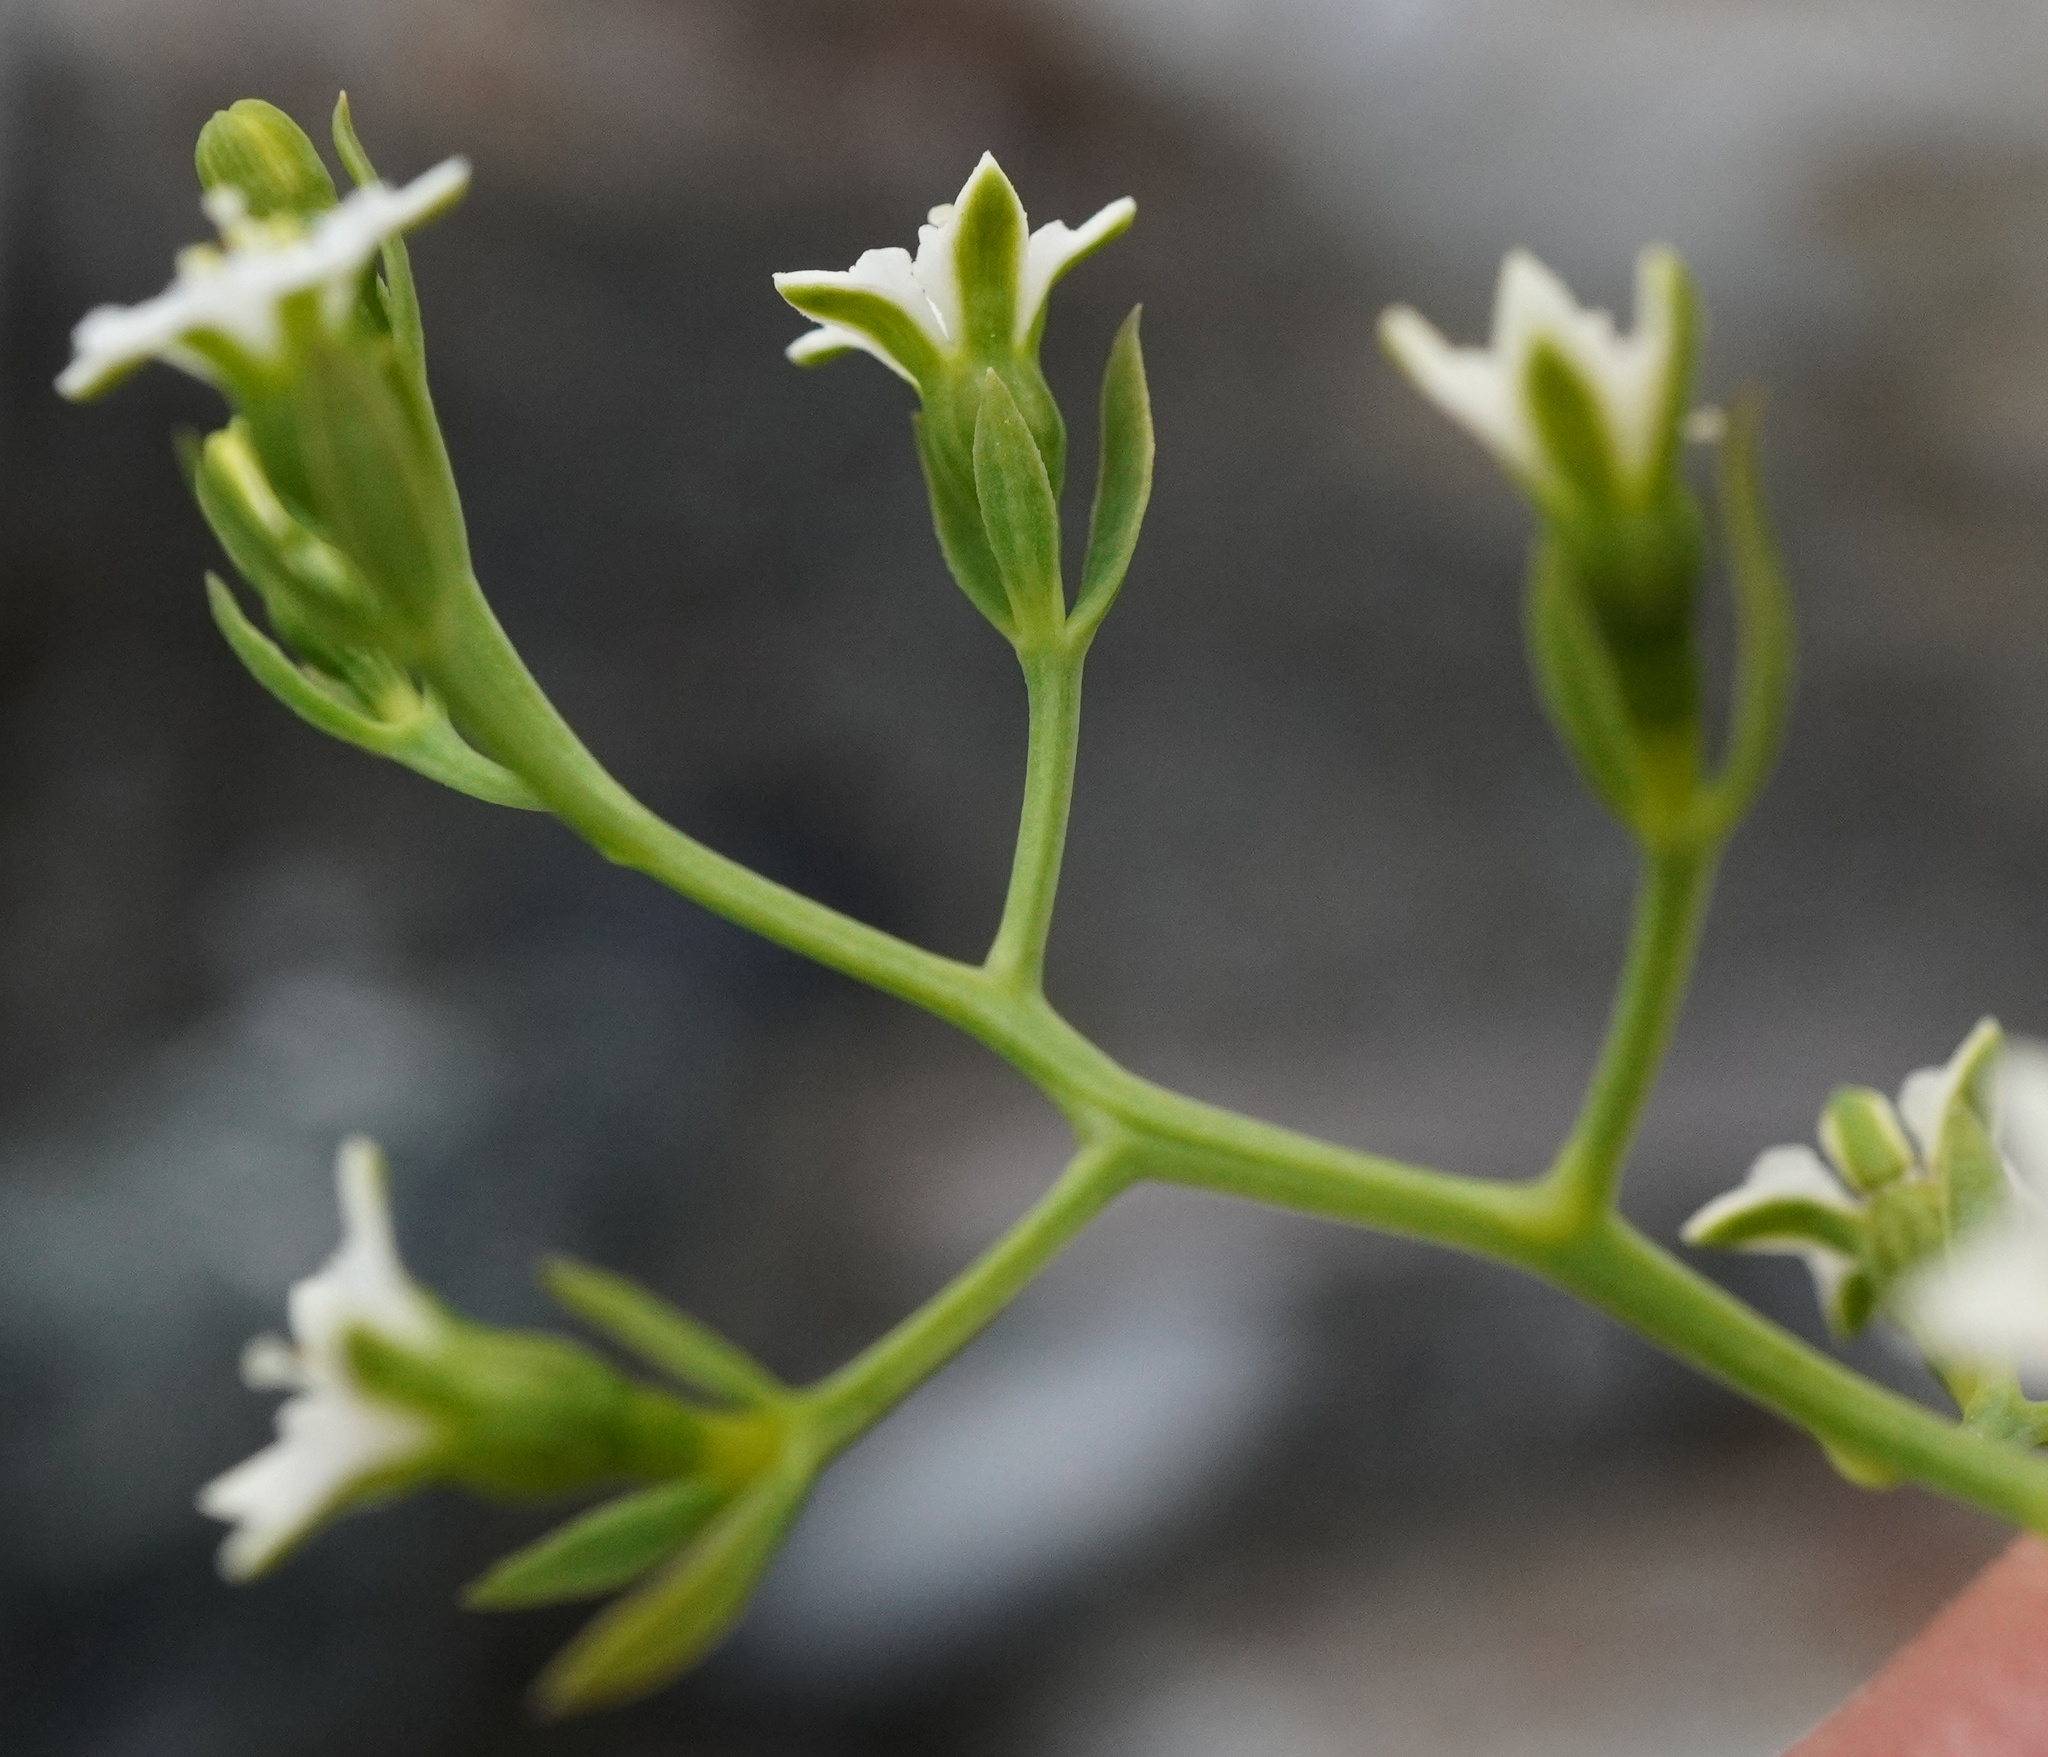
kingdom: Plantae
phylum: Tracheophyta
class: Magnoliopsida
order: Santalales
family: Thesiaceae
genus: Thesium
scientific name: Thesium pyrenaicum
